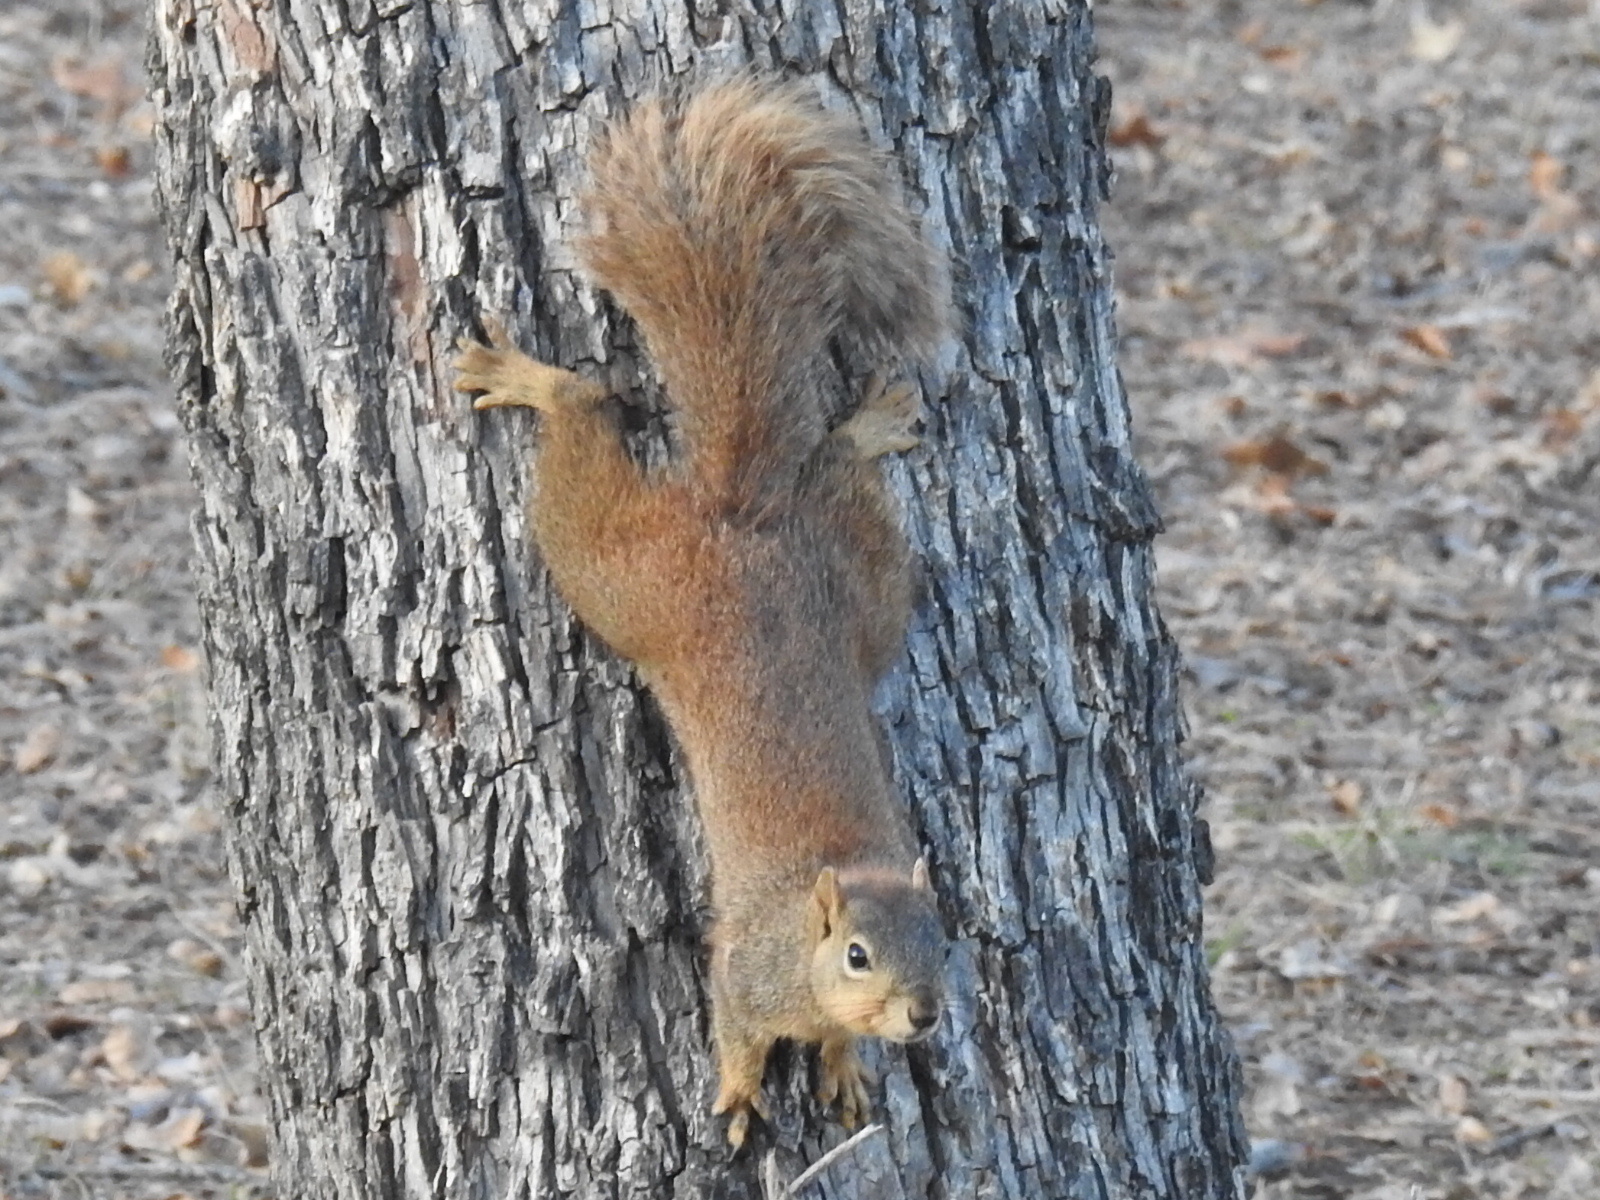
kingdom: Animalia
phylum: Chordata
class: Mammalia
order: Rodentia
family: Sciuridae
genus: Sciurus
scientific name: Sciurus niger
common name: Fox squirrel
